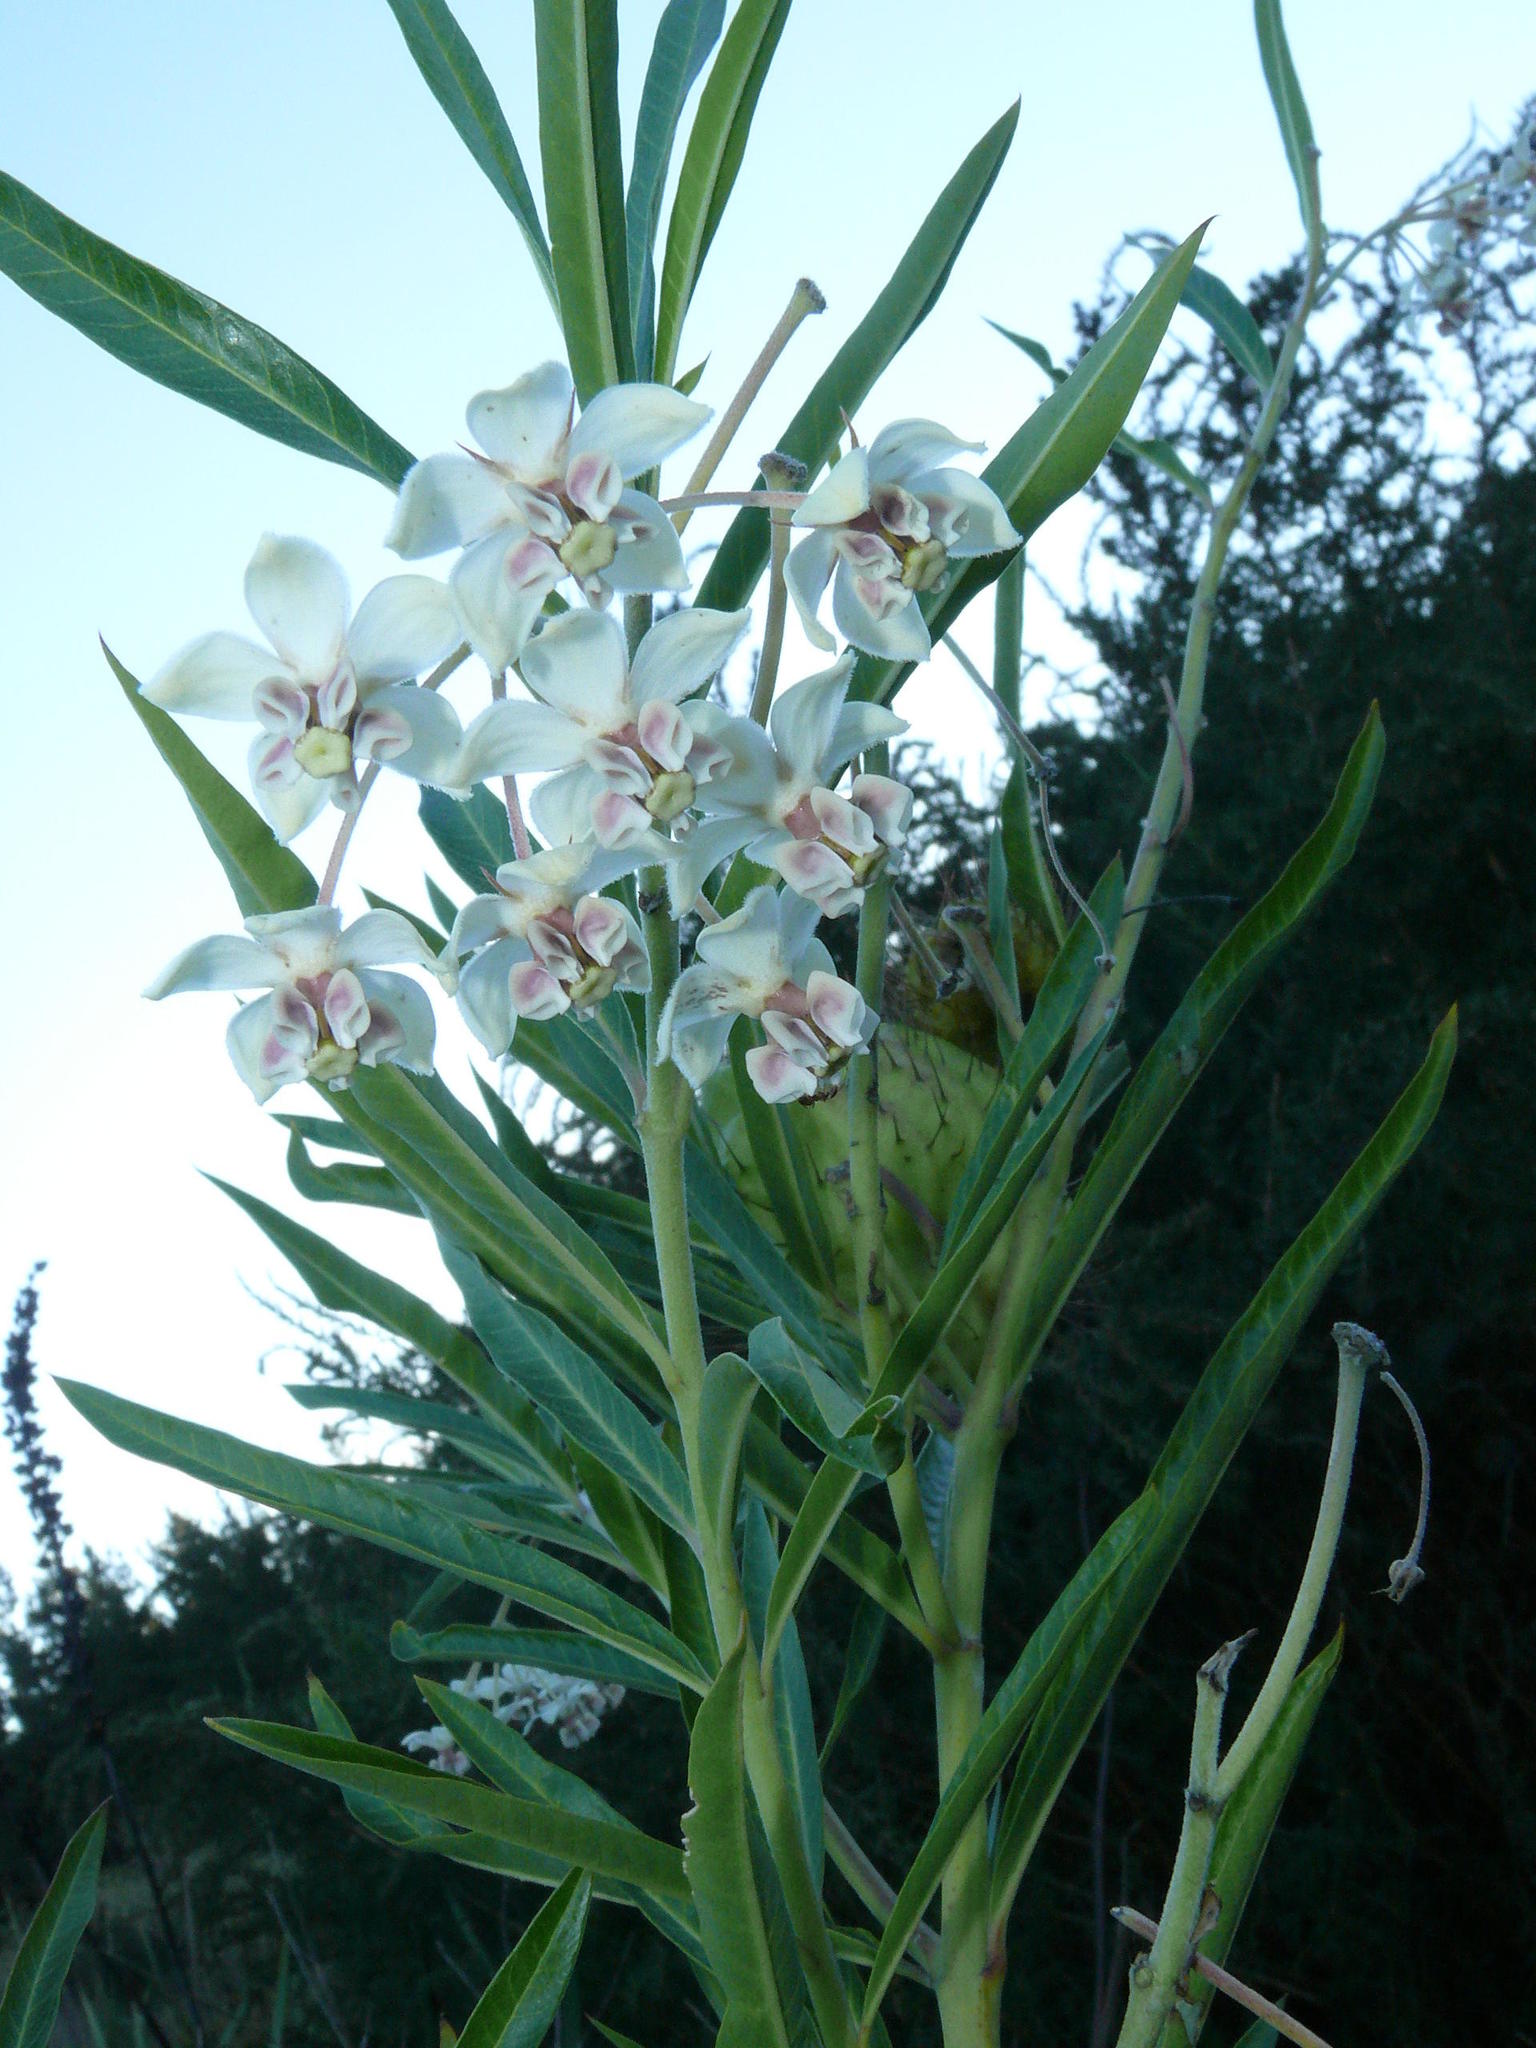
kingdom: Plantae
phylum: Tracheophyta
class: Magnoliopsida
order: Gentianales
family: Apocynaceae
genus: Gomphocarpus
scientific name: Gomphocarpus physocarpus
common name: Balloon cotton bush
